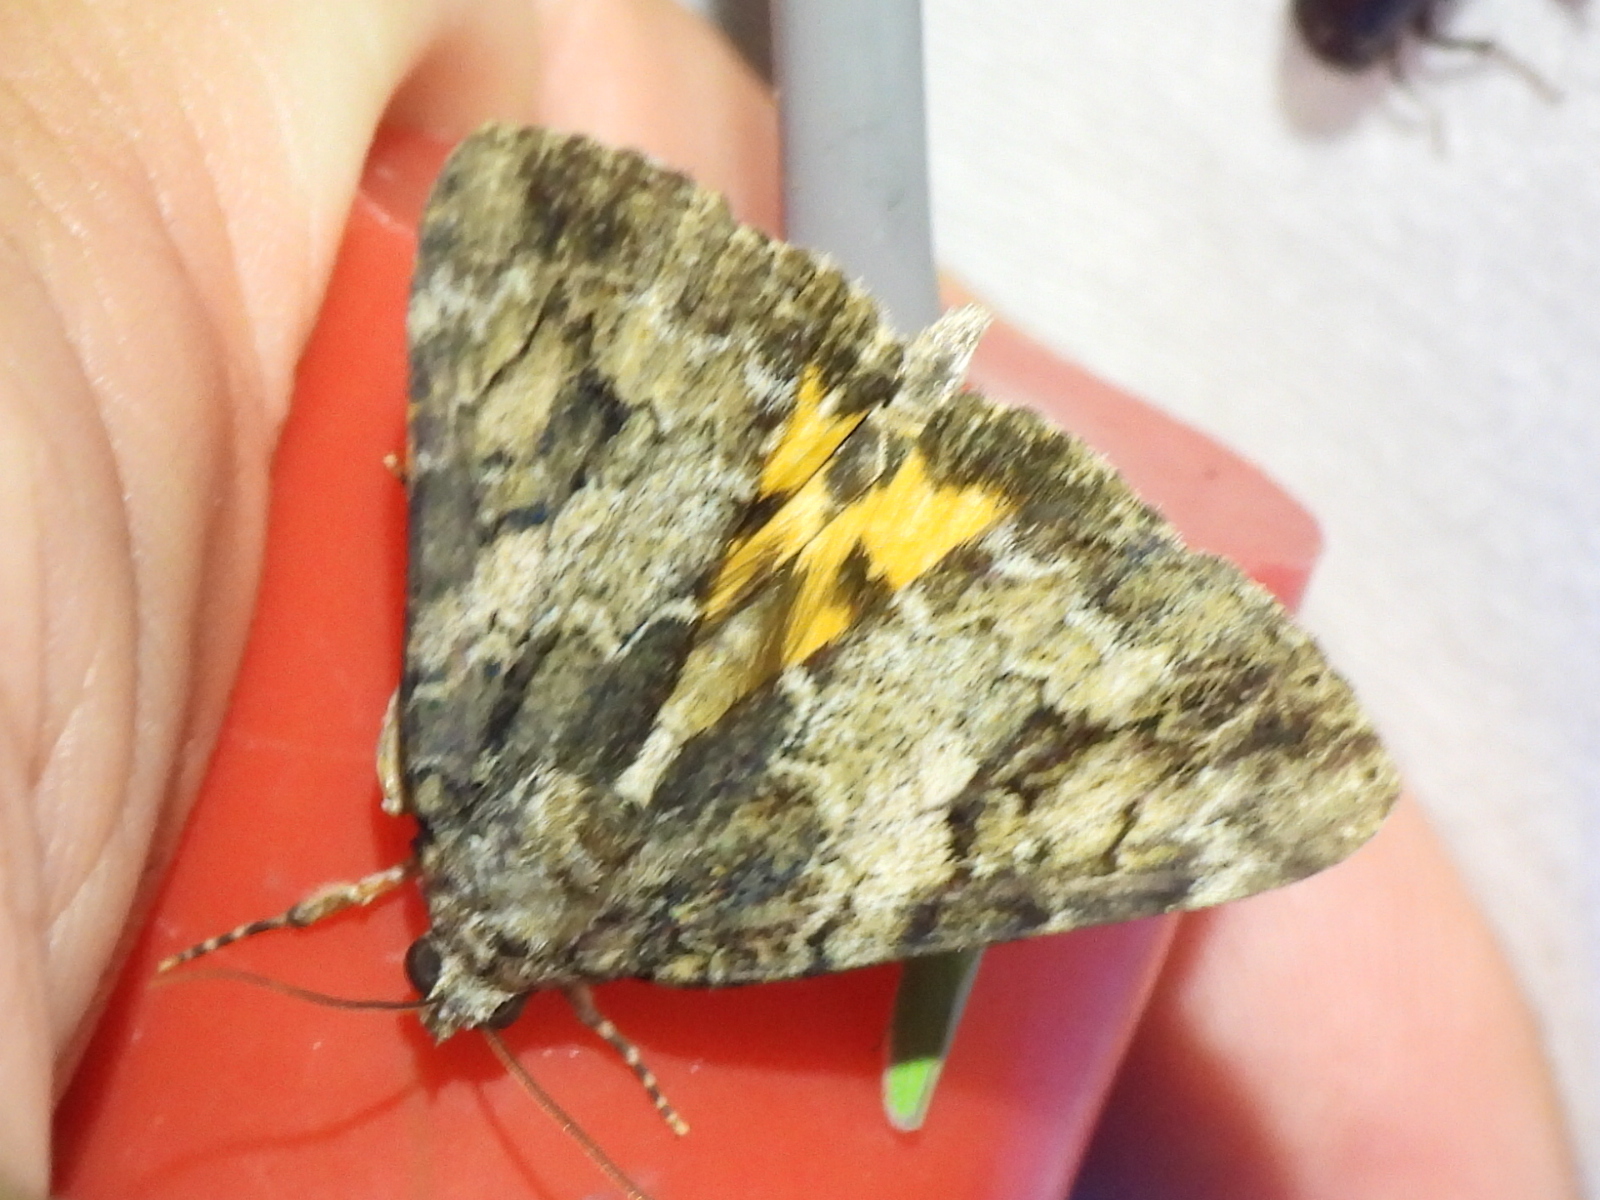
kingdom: Animalia
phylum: Arthropoda
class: Insecta
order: Lepidoptera
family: Erebidae
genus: Catocala
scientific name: Catocala micronympha
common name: Little nymph underwing
